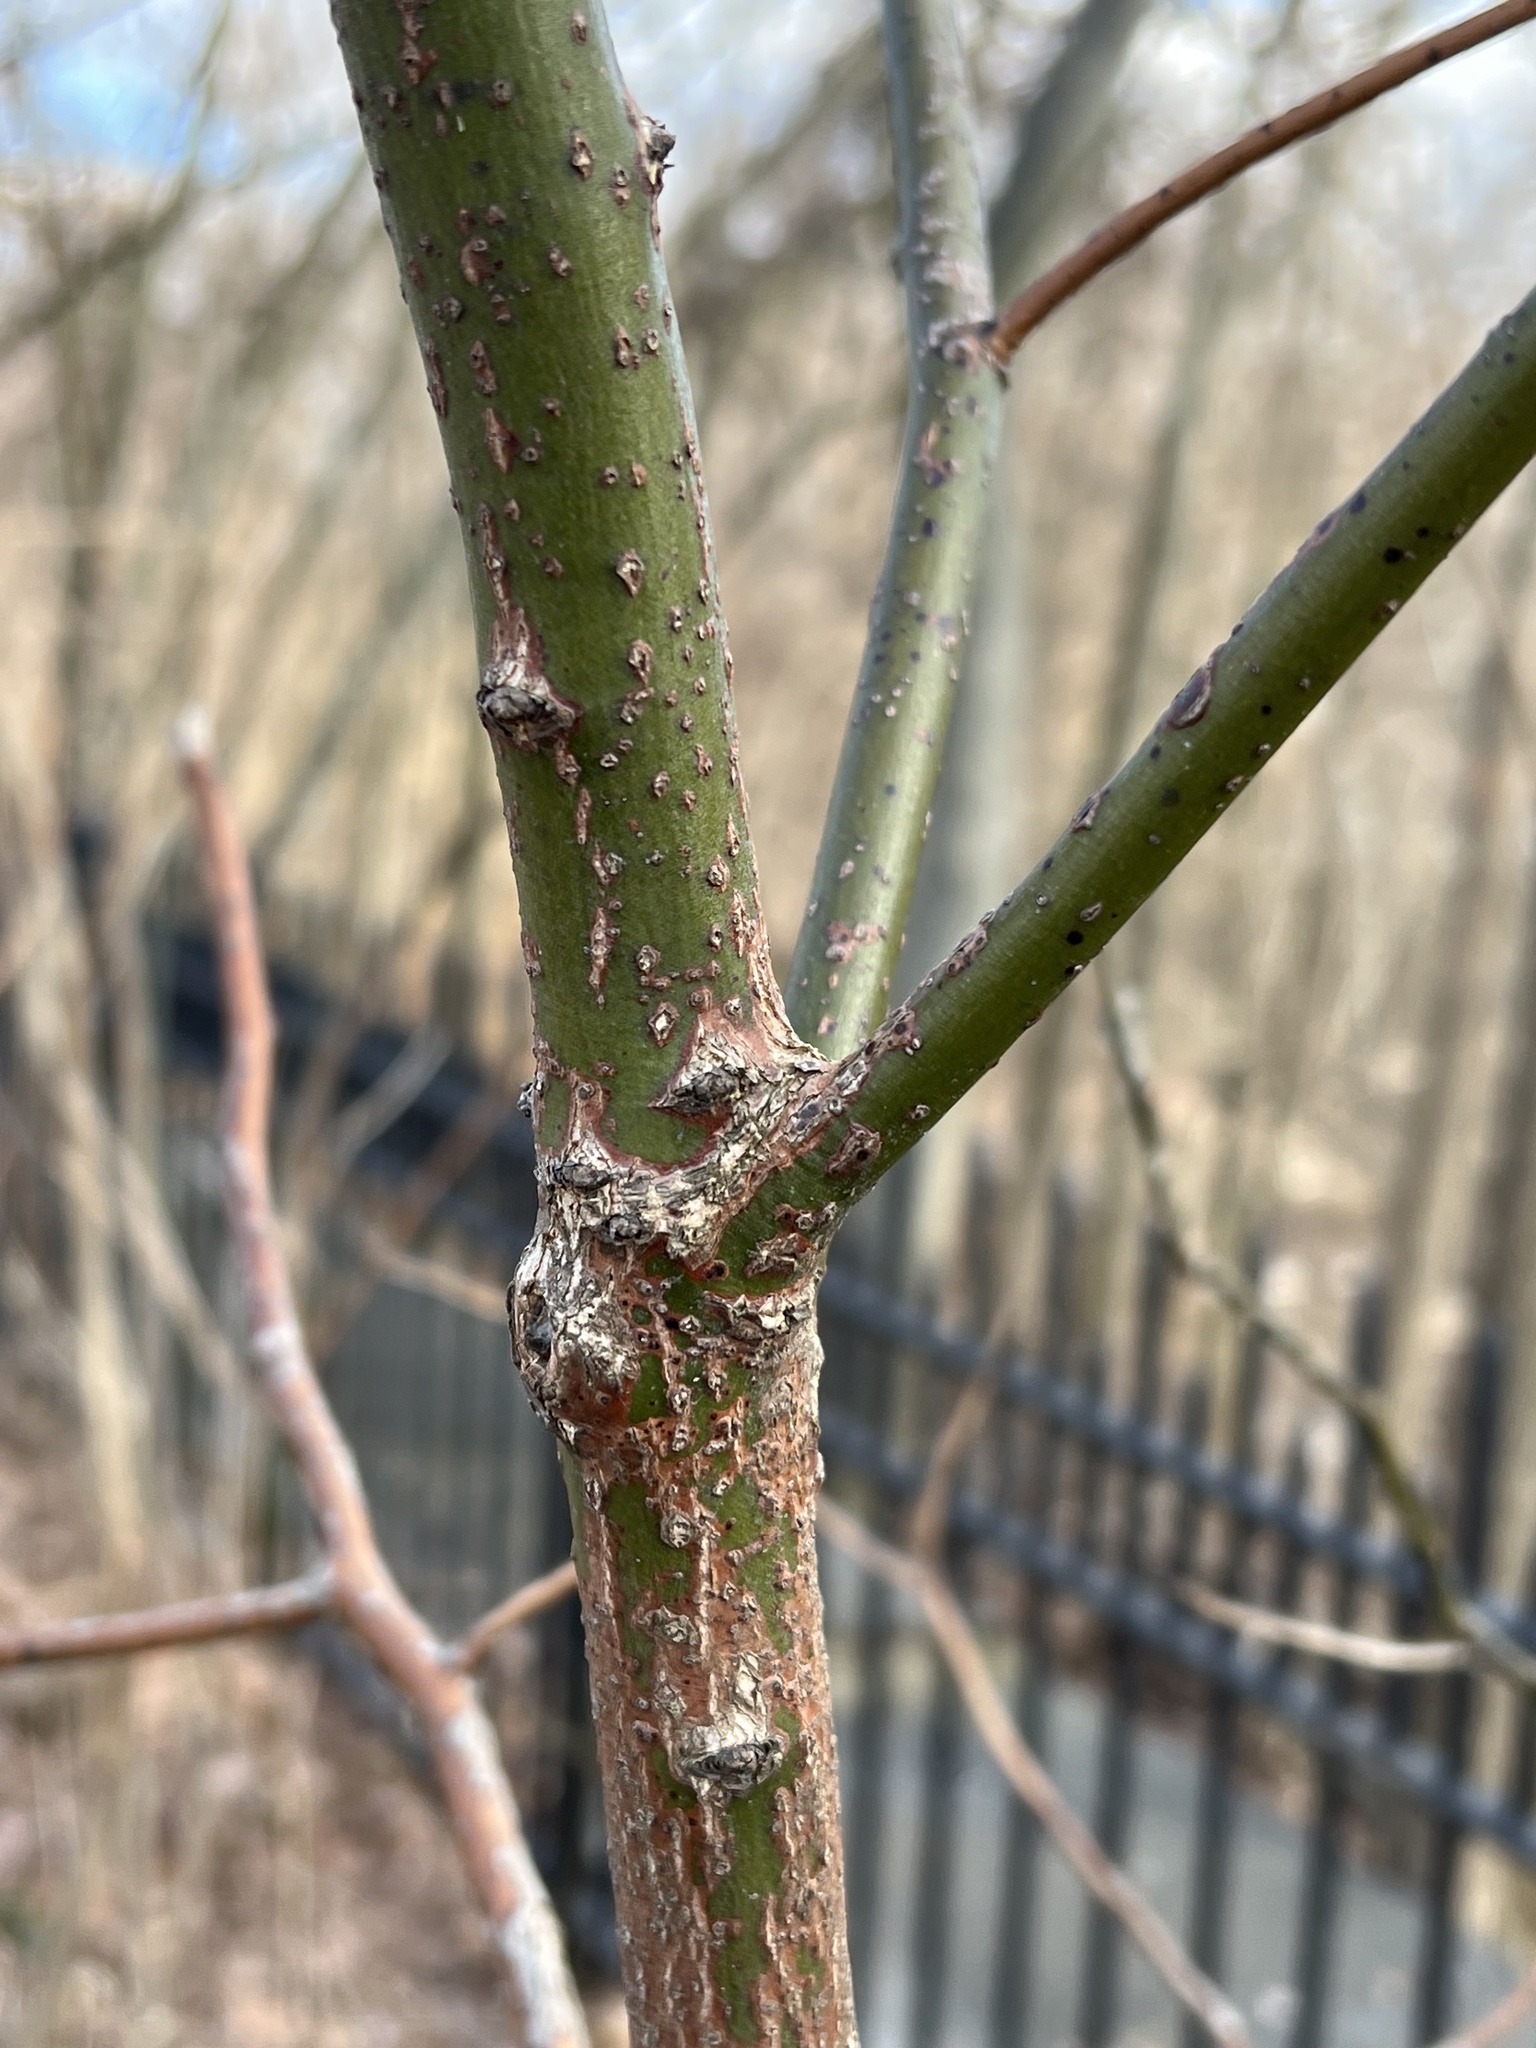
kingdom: Plantae
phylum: Tracheophyta
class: Magnoliopsida
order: Laurales
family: Lauraceae
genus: Sassafras
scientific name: Sassafras albidum
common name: Sassafras
